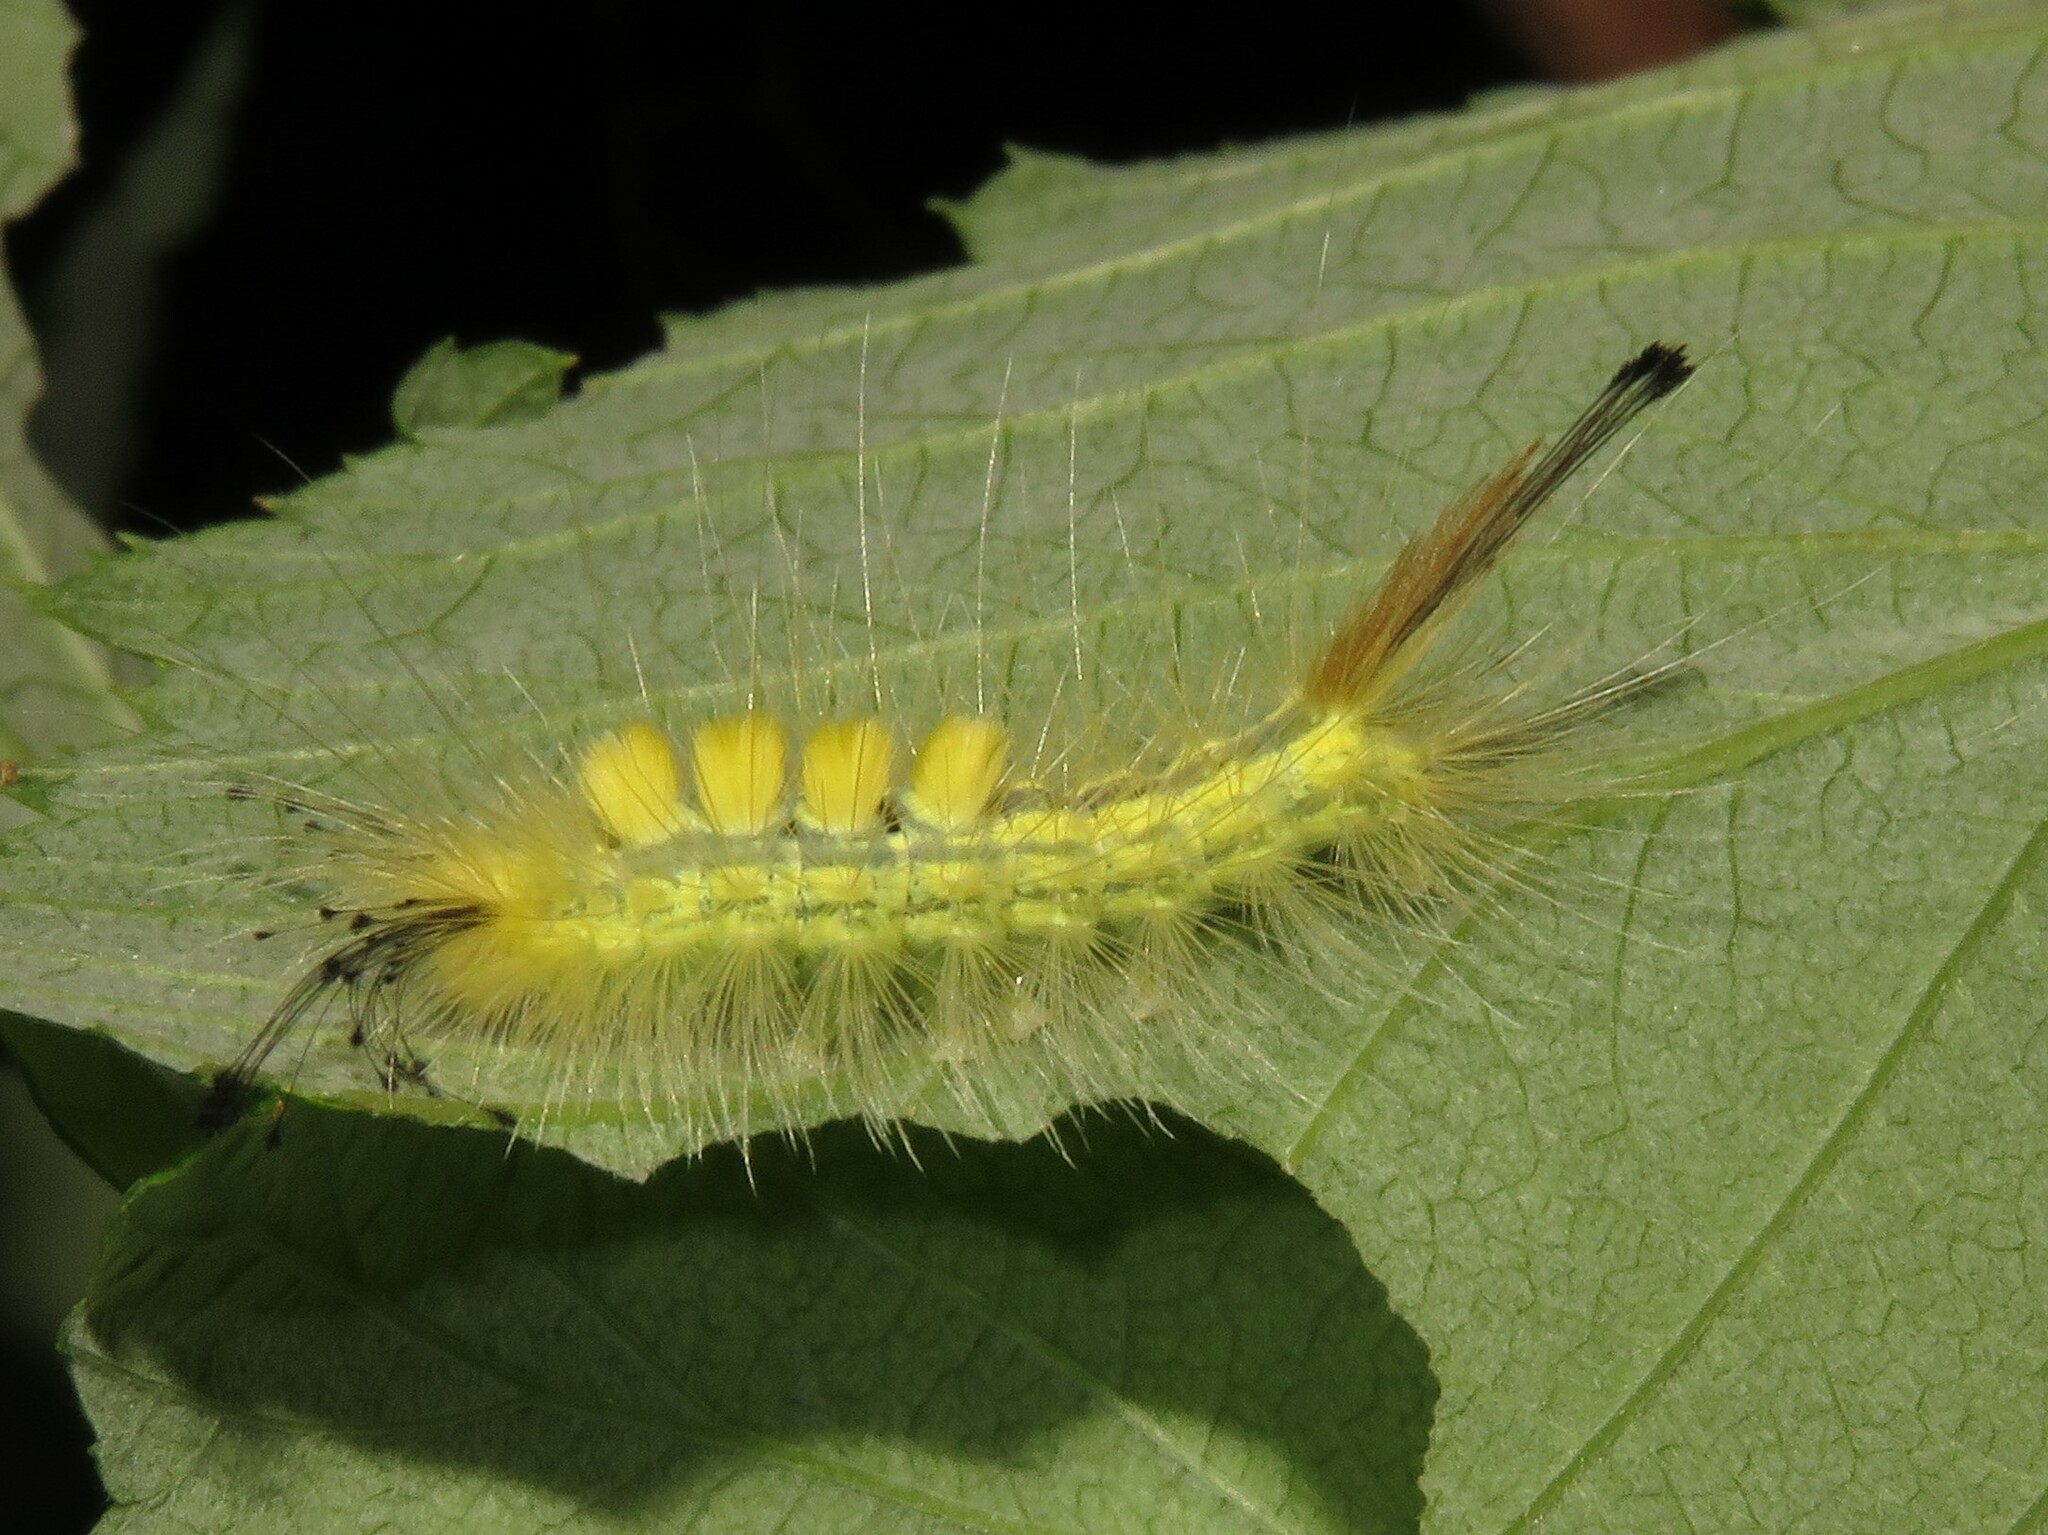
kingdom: Animalia
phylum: Arthropoda
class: Insecta
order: Lepidoptera
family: Erebidae
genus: Orgyia
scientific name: Orgyia definita
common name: Definite tussock moth
